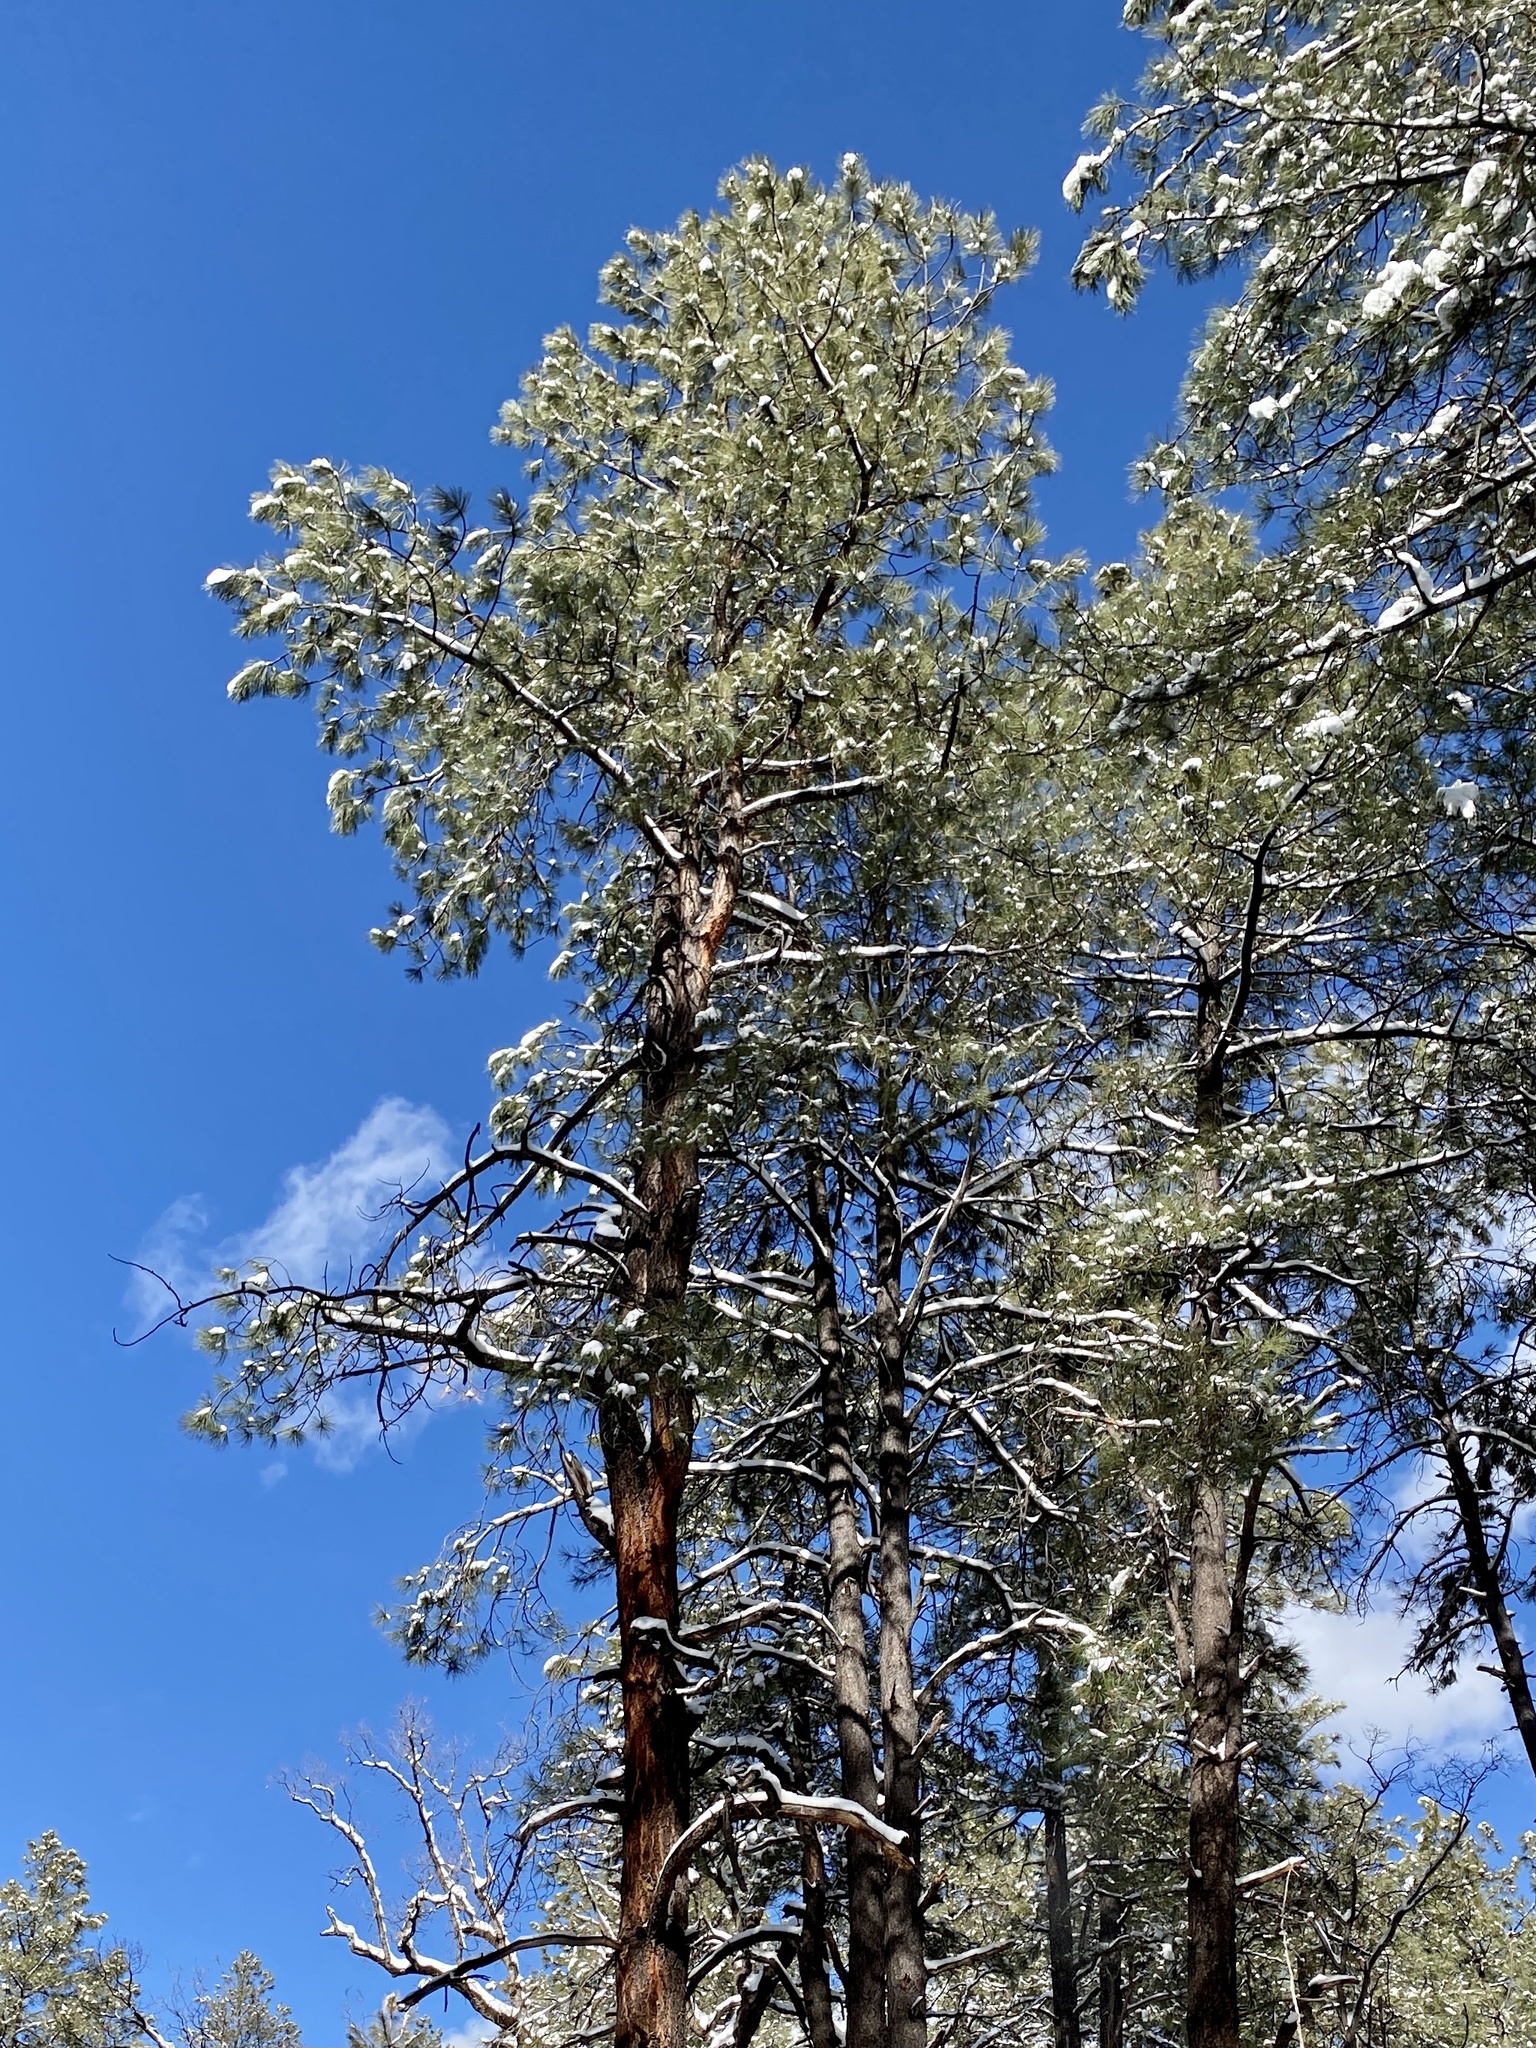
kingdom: Plantae
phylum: Tracheophyta
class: Pinopsida
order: Pinales
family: Pinaceae
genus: Pinus
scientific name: Pinus ponderosa
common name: Western yellow-pine
